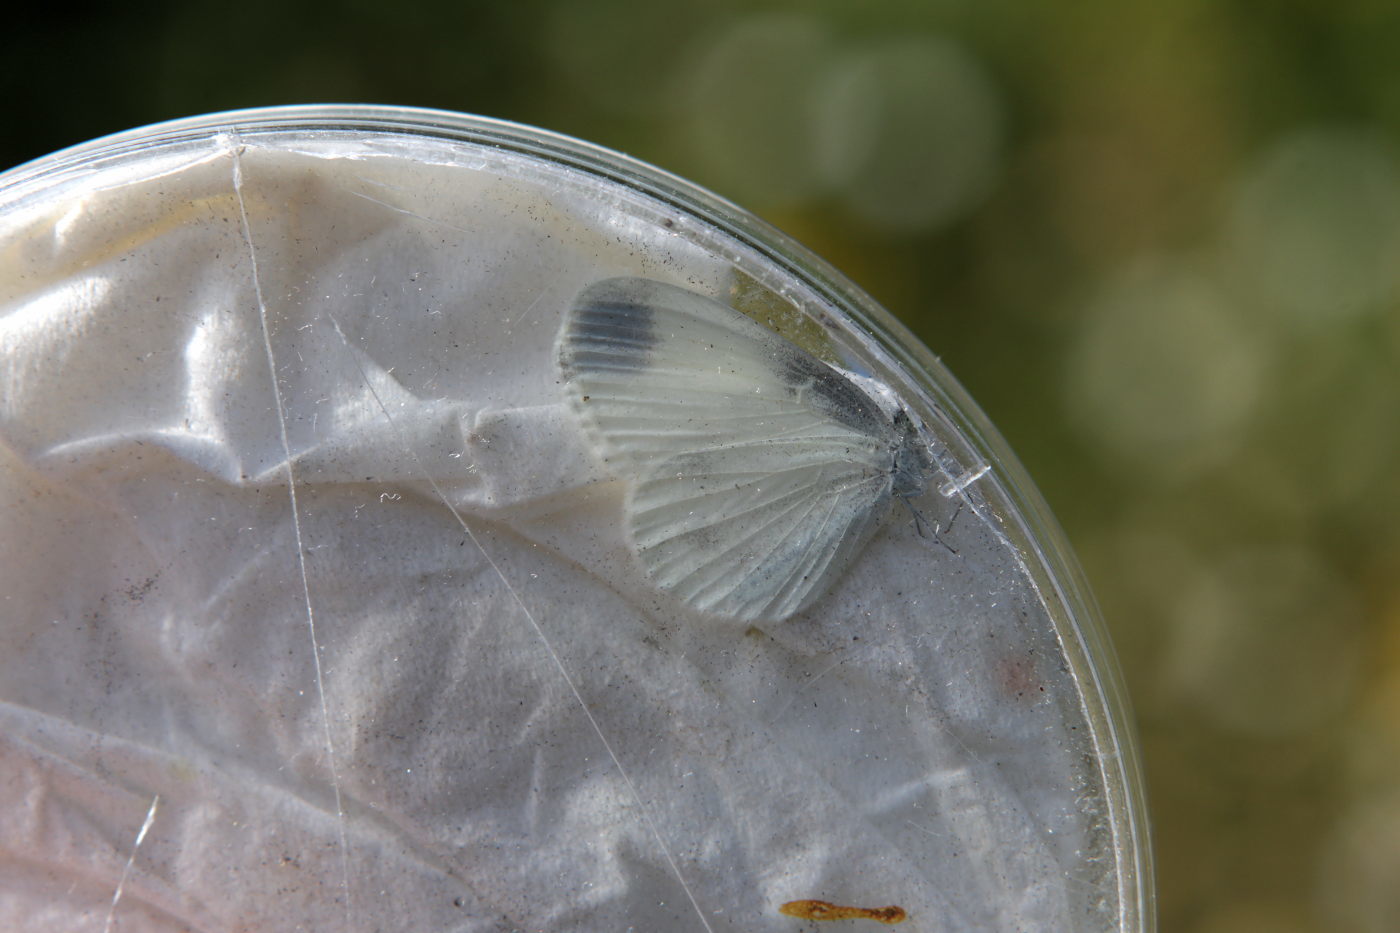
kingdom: Animalia
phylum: Arthropoda
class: Insecta
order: Lepidoptera
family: Pieridae
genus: Leptidea
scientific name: Leptidea
